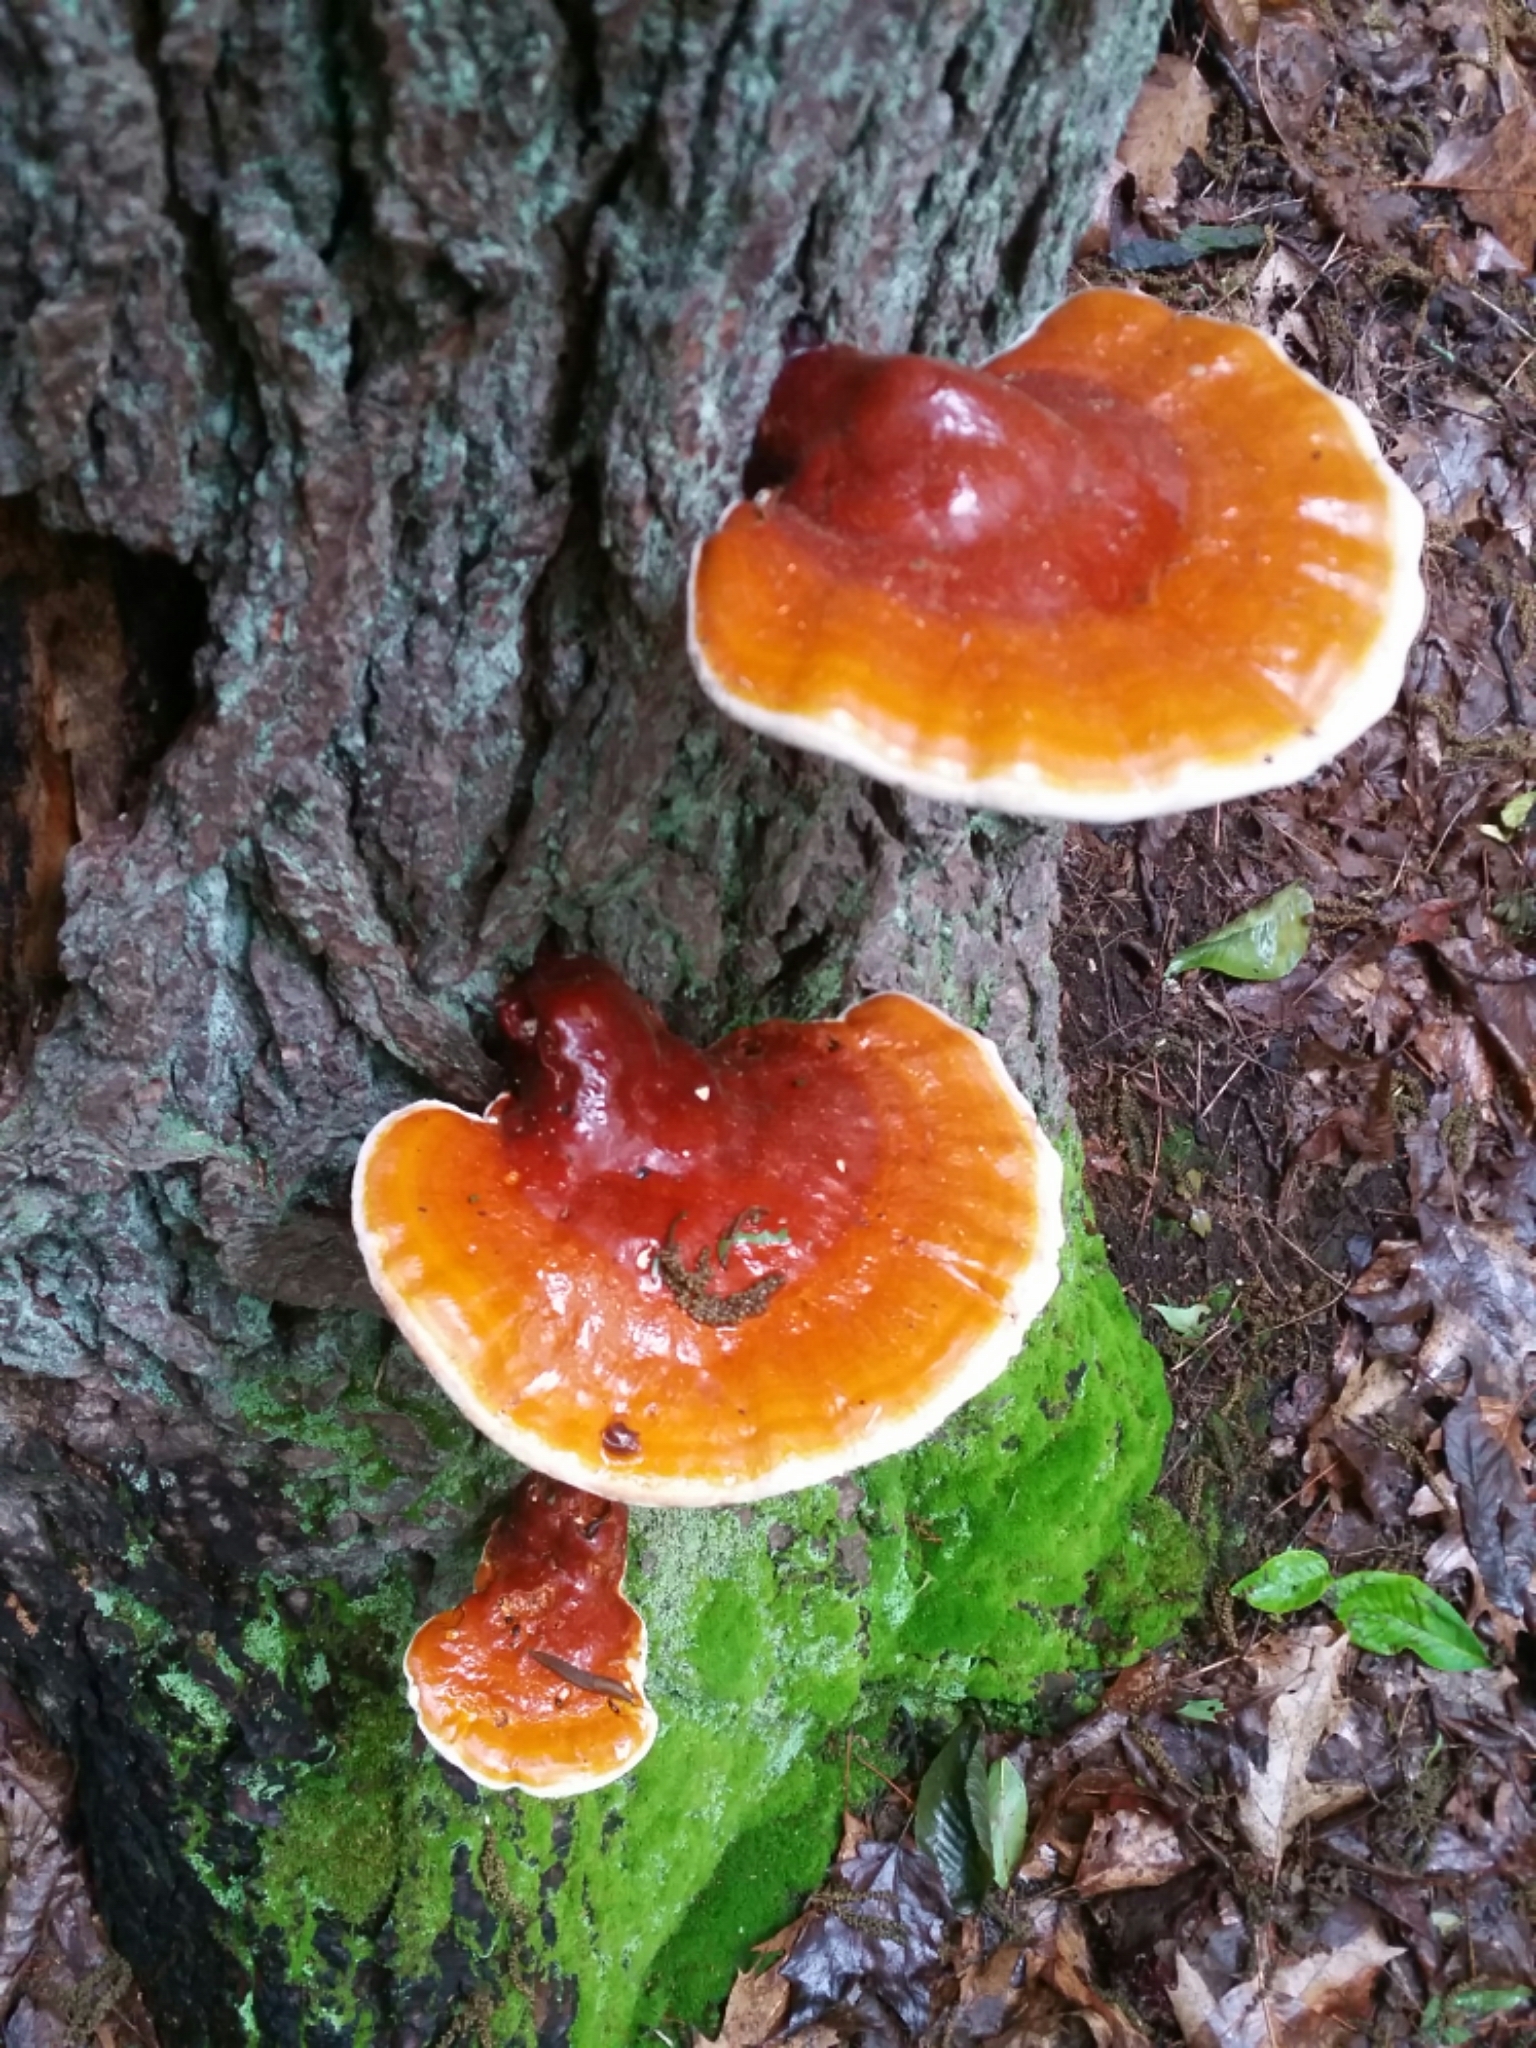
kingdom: Fungi
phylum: Basidiomycota
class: Agaricomycetes
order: Polyporales
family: Polyporaceae
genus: Ganoderma
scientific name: Ganoderma tsugae
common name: Hemlock varnish shelf
